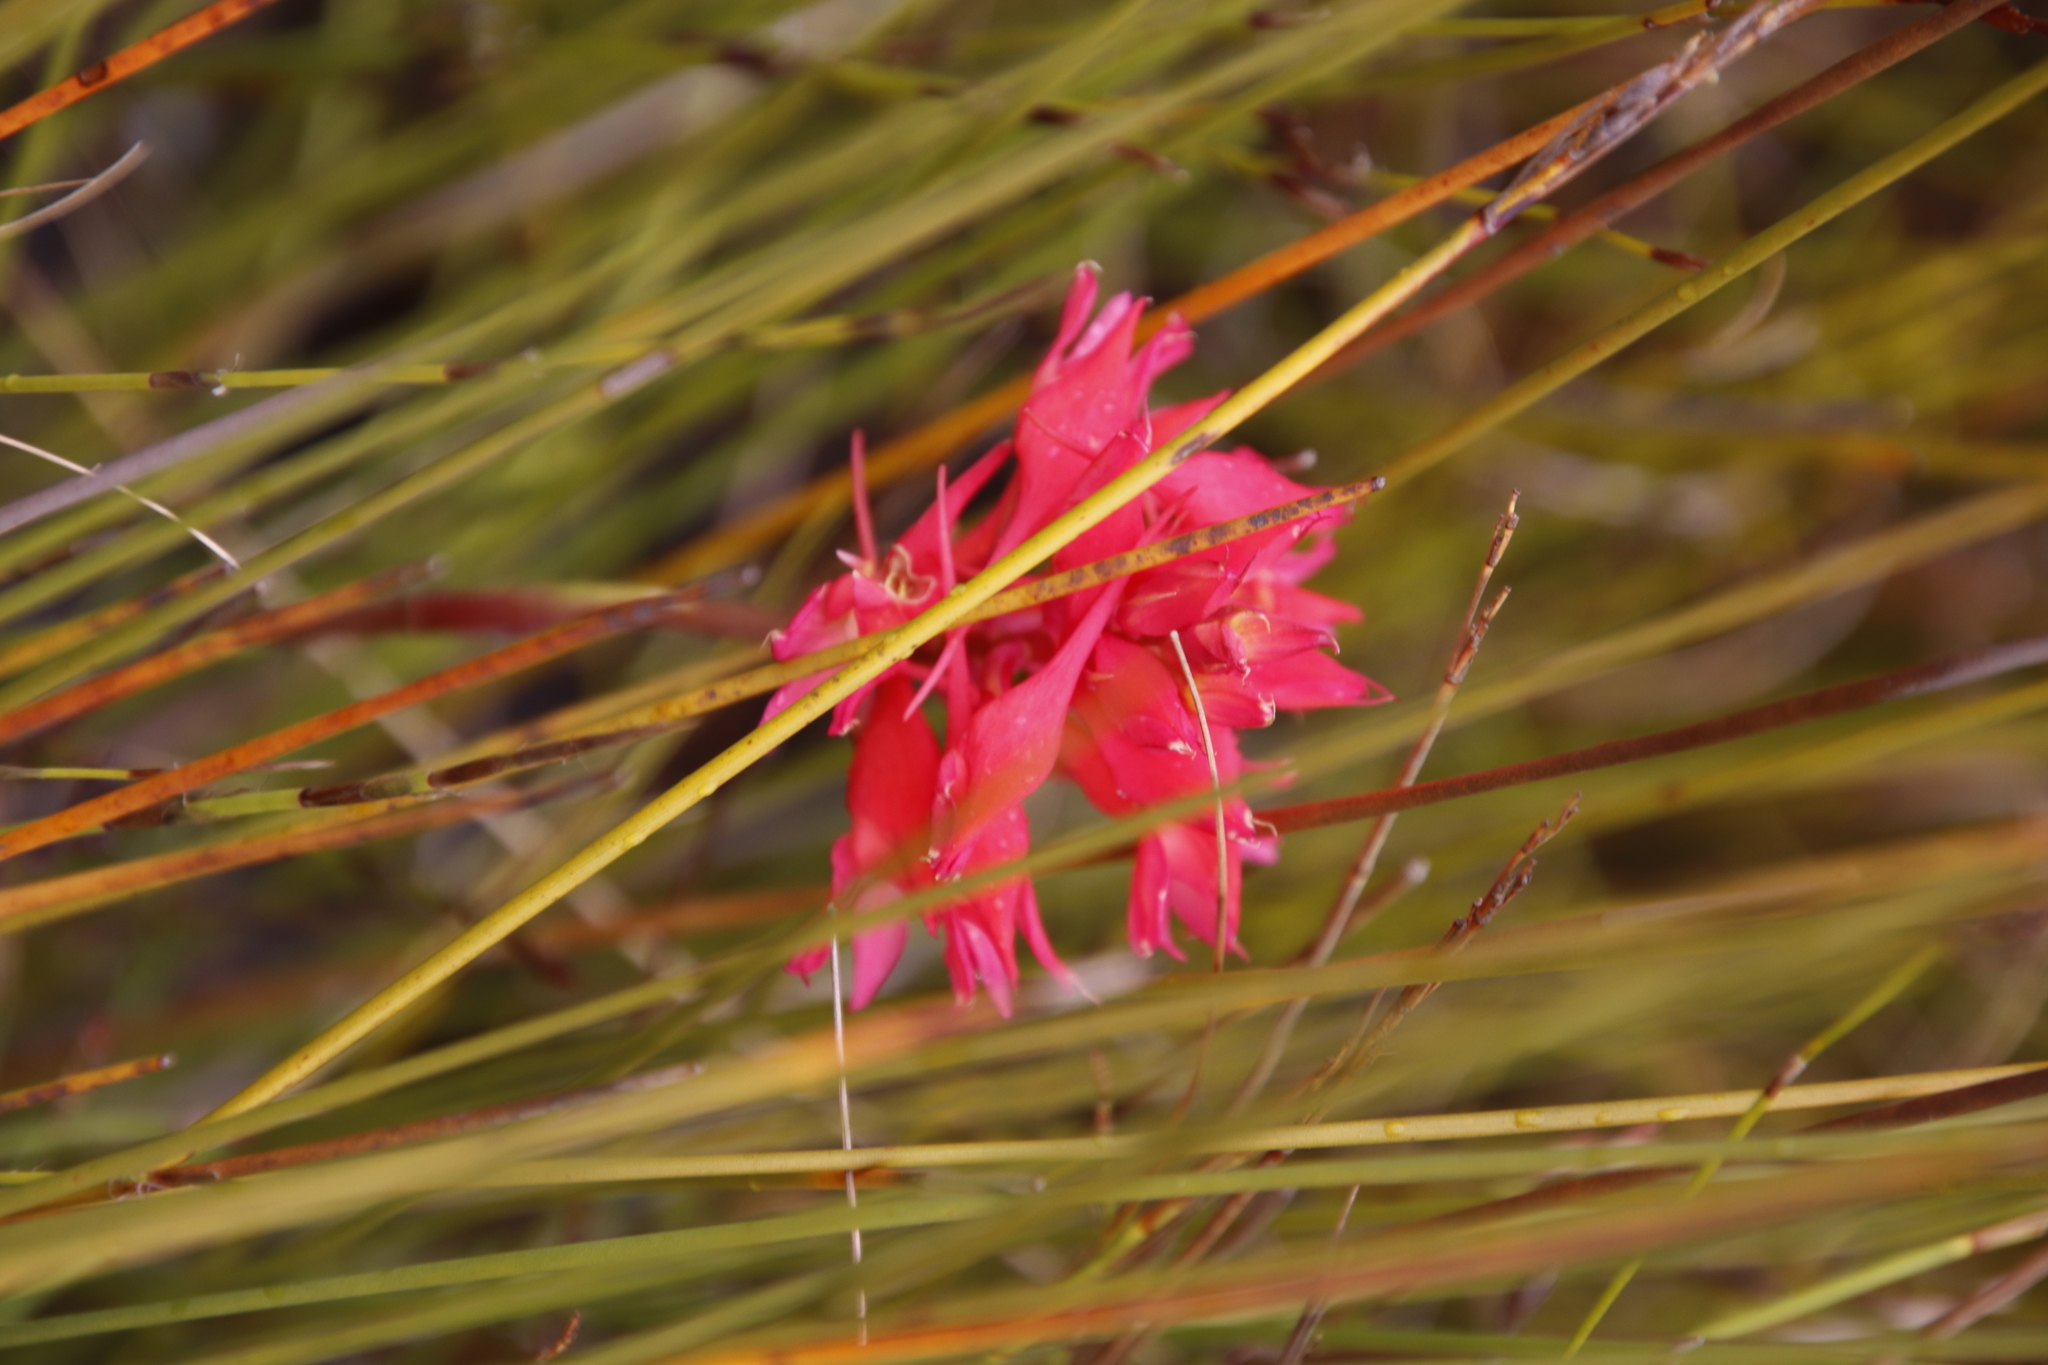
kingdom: Plantae
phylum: Tracheophyta
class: Liliopsida
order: Asparagales
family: Orchidaceae
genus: Disa
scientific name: Disa ferruginea
